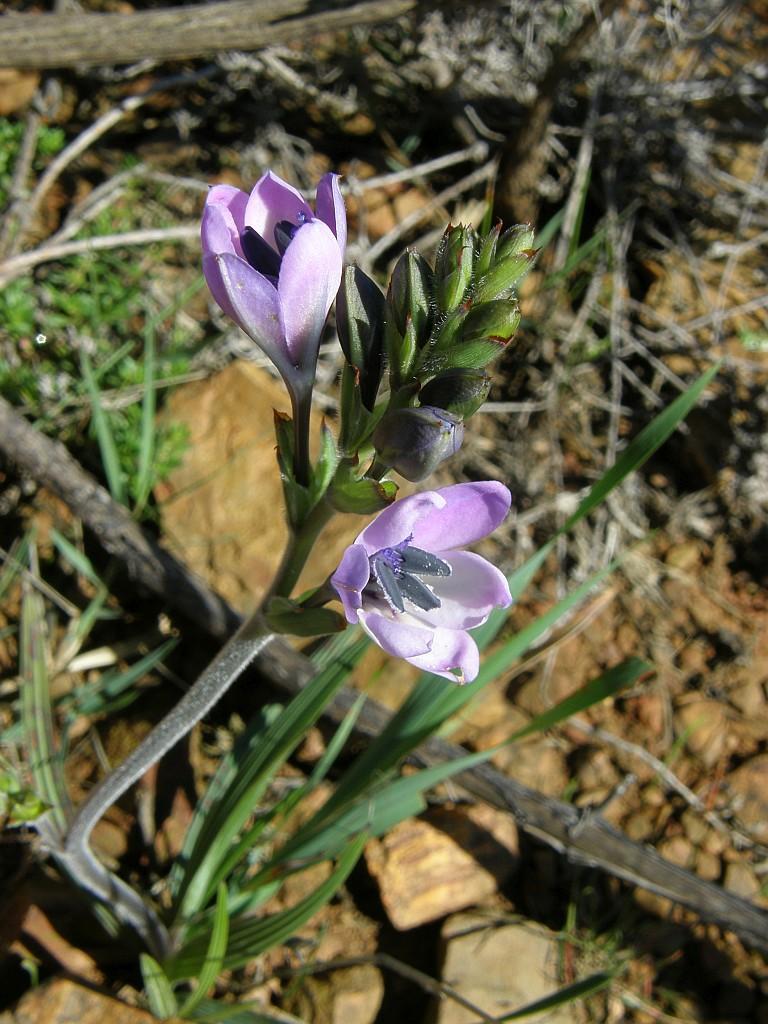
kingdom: Plantae
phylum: Tracheophyta
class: Liliopsida
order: Asparagales
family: Iridaceae
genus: Babiana
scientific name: Babiana nervosa
